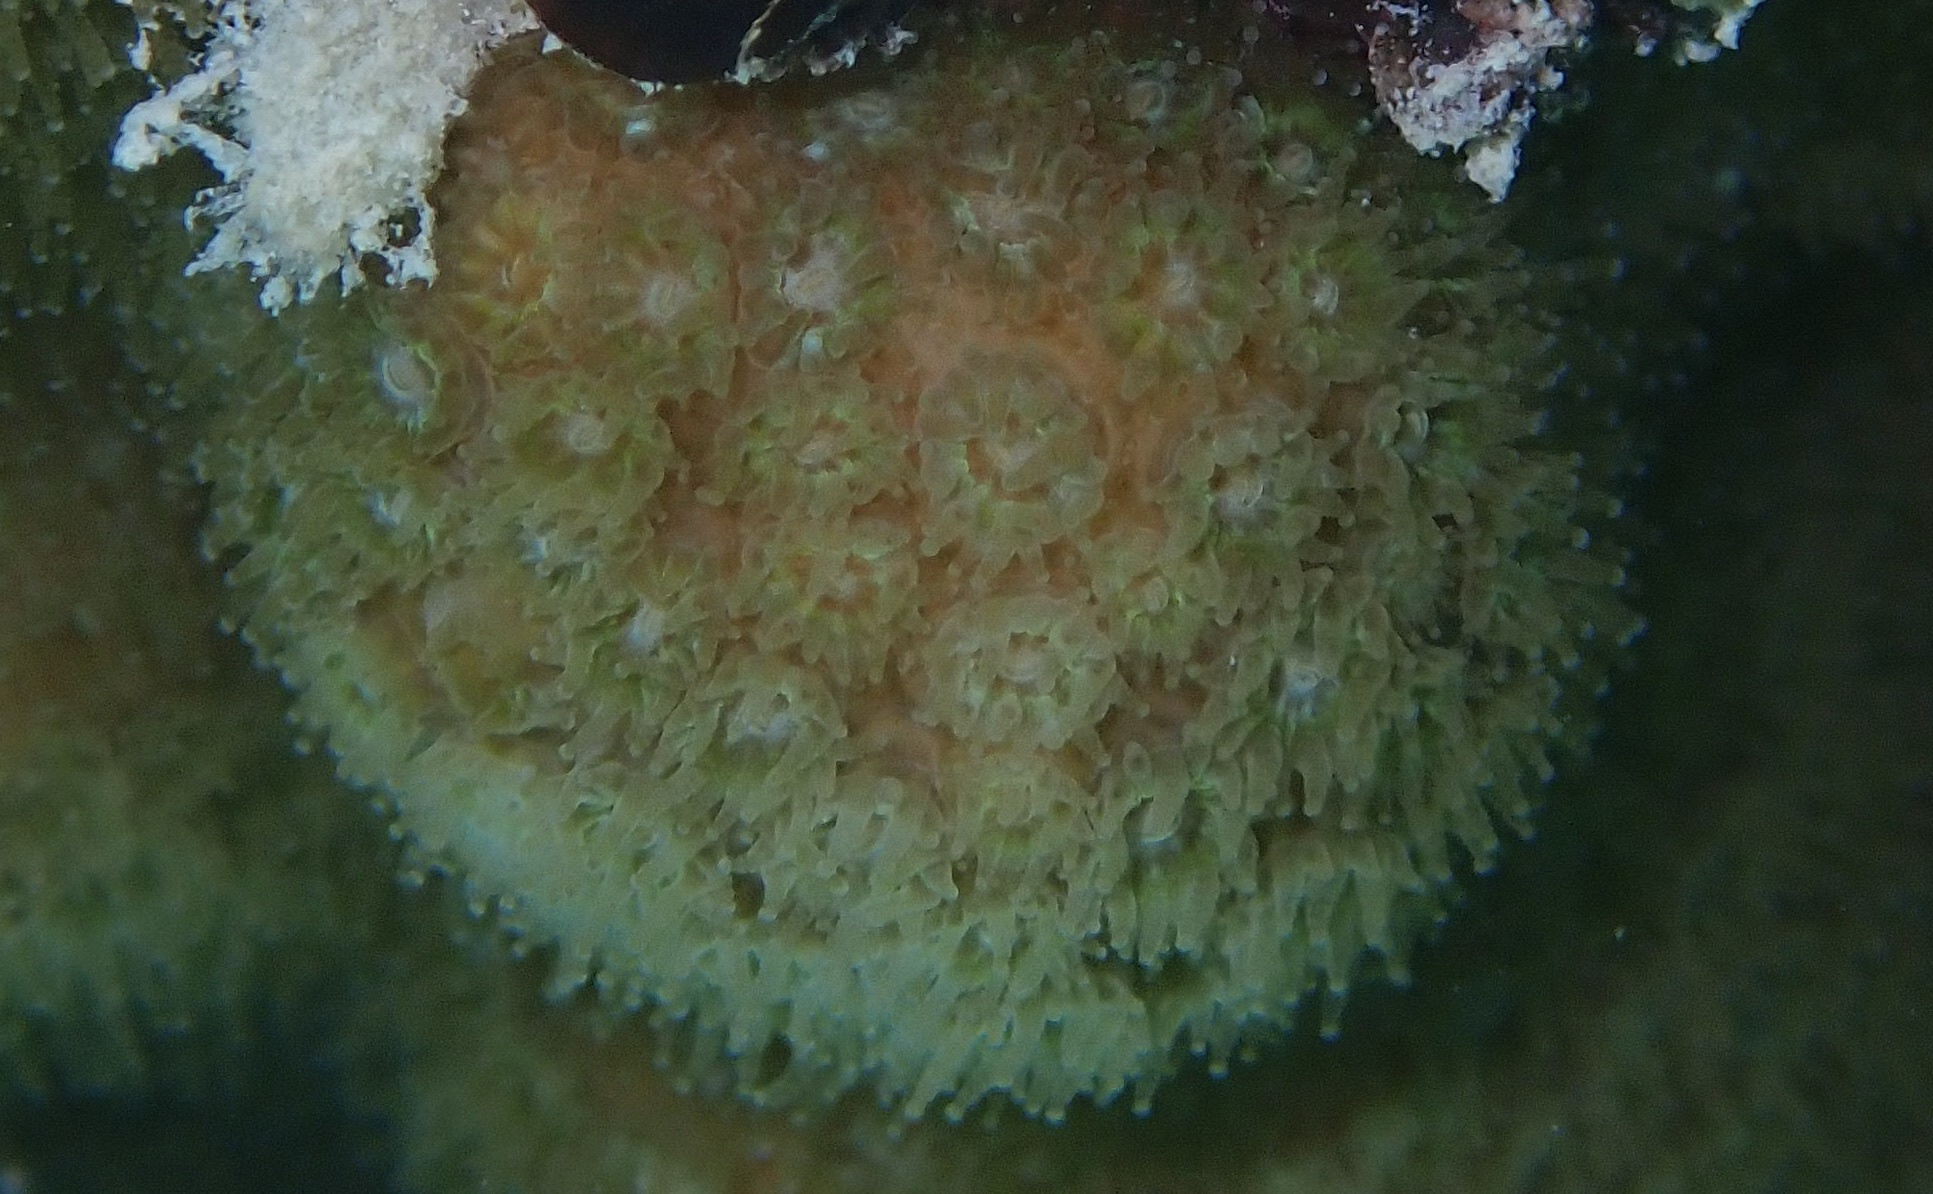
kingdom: Animalia
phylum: Cnidaria
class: Anthozoa
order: Scleractinia
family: Pocilloporidae
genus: Madracis
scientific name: Madracis decactis
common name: Ten-ray star coral
